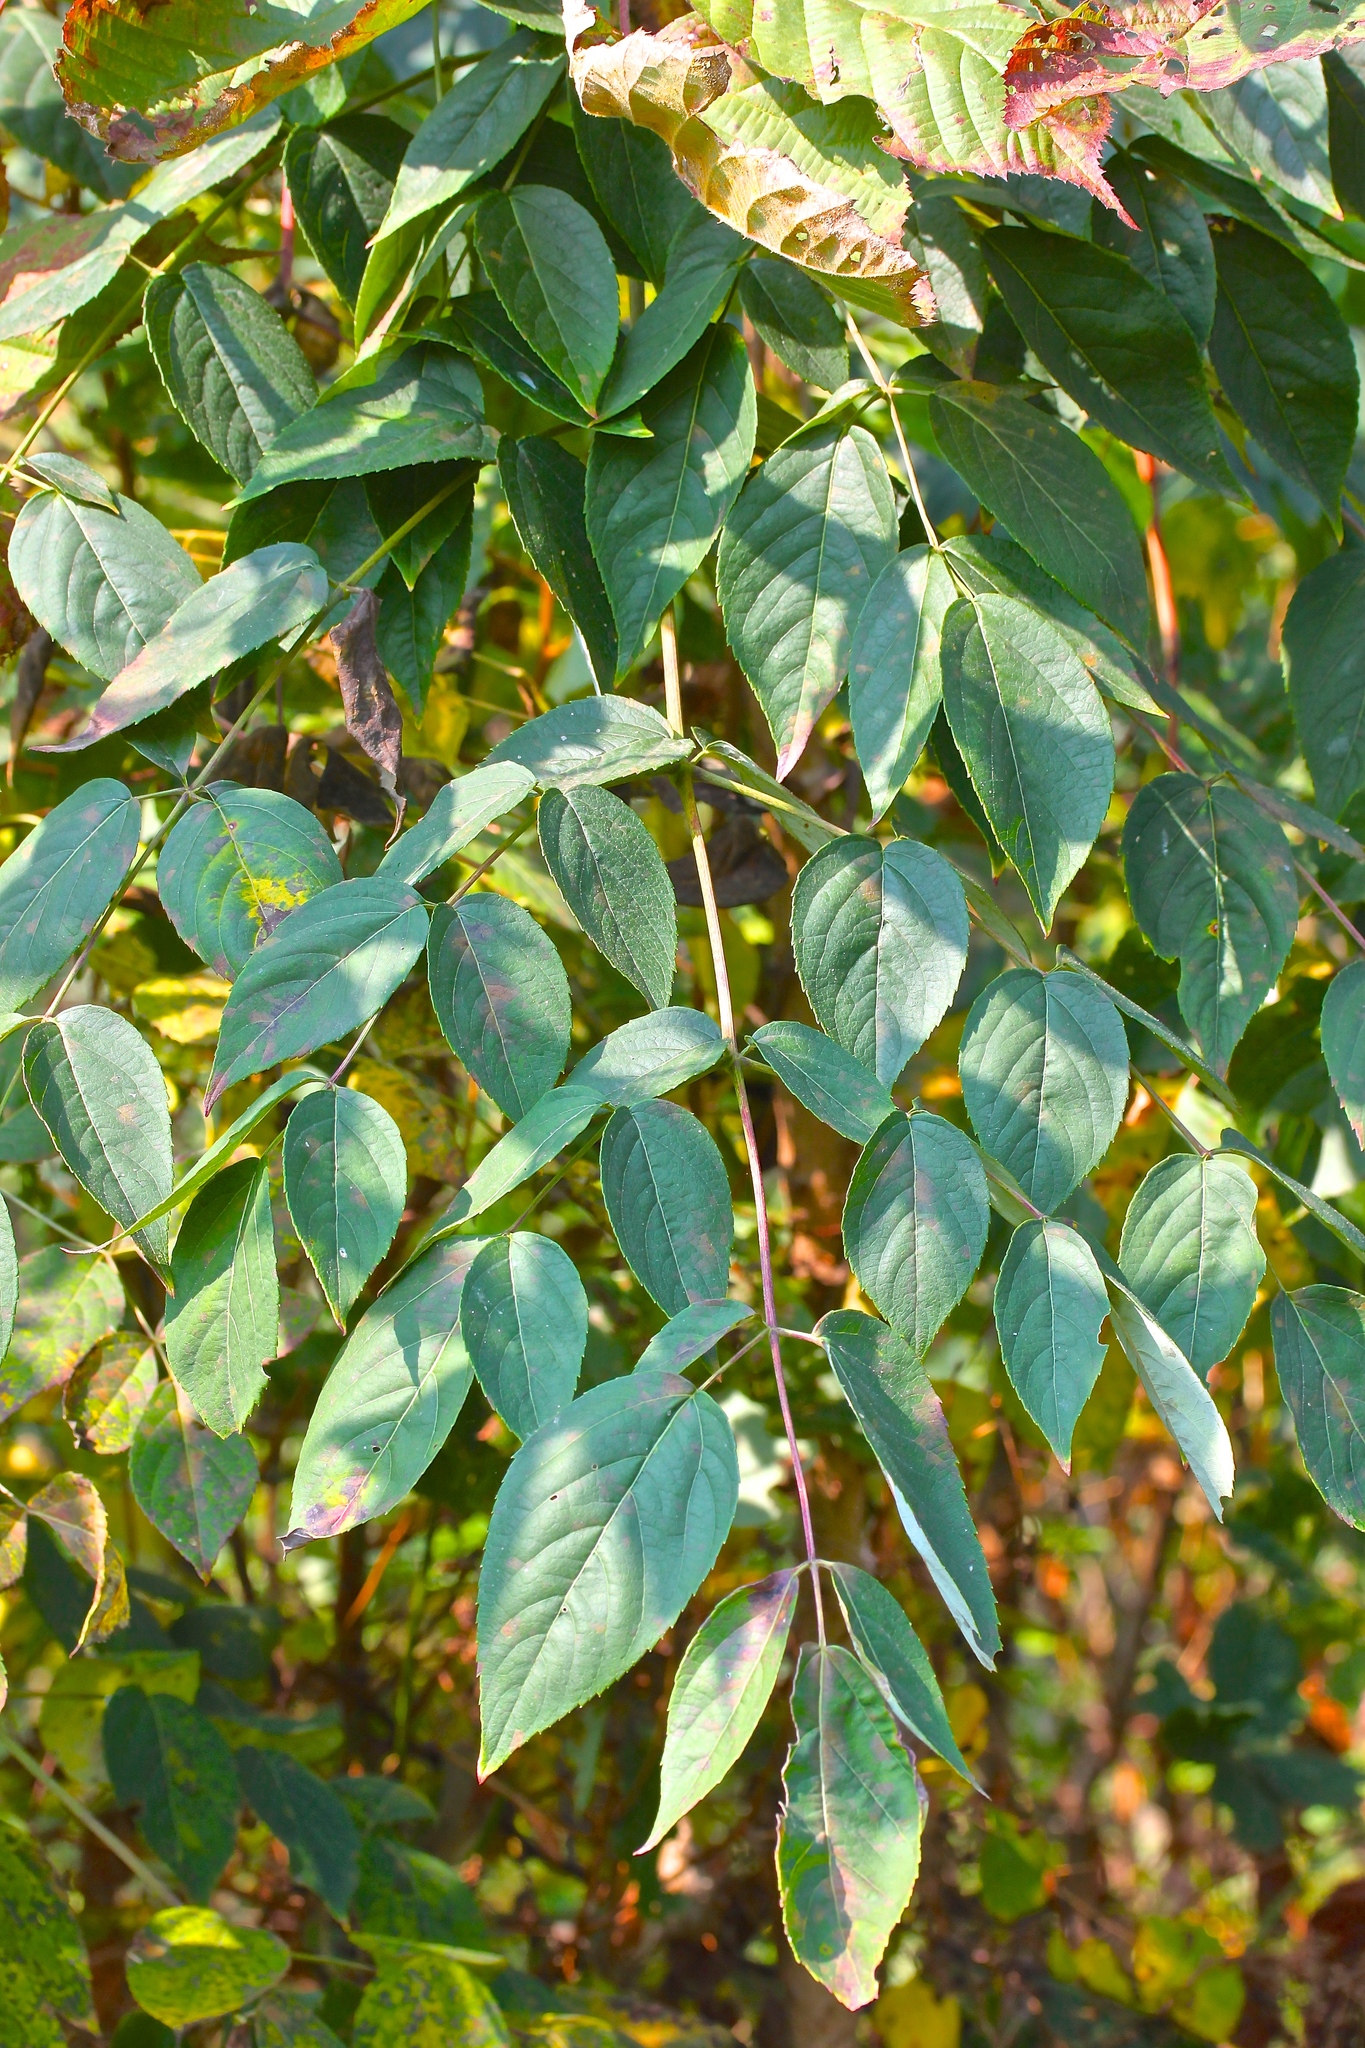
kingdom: Plantae
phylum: Tracheophyta
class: Magnoliopsida
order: Apiales
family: Araliaceae
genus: Aralia
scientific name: Aralia spinosa
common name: Hercules'-club
